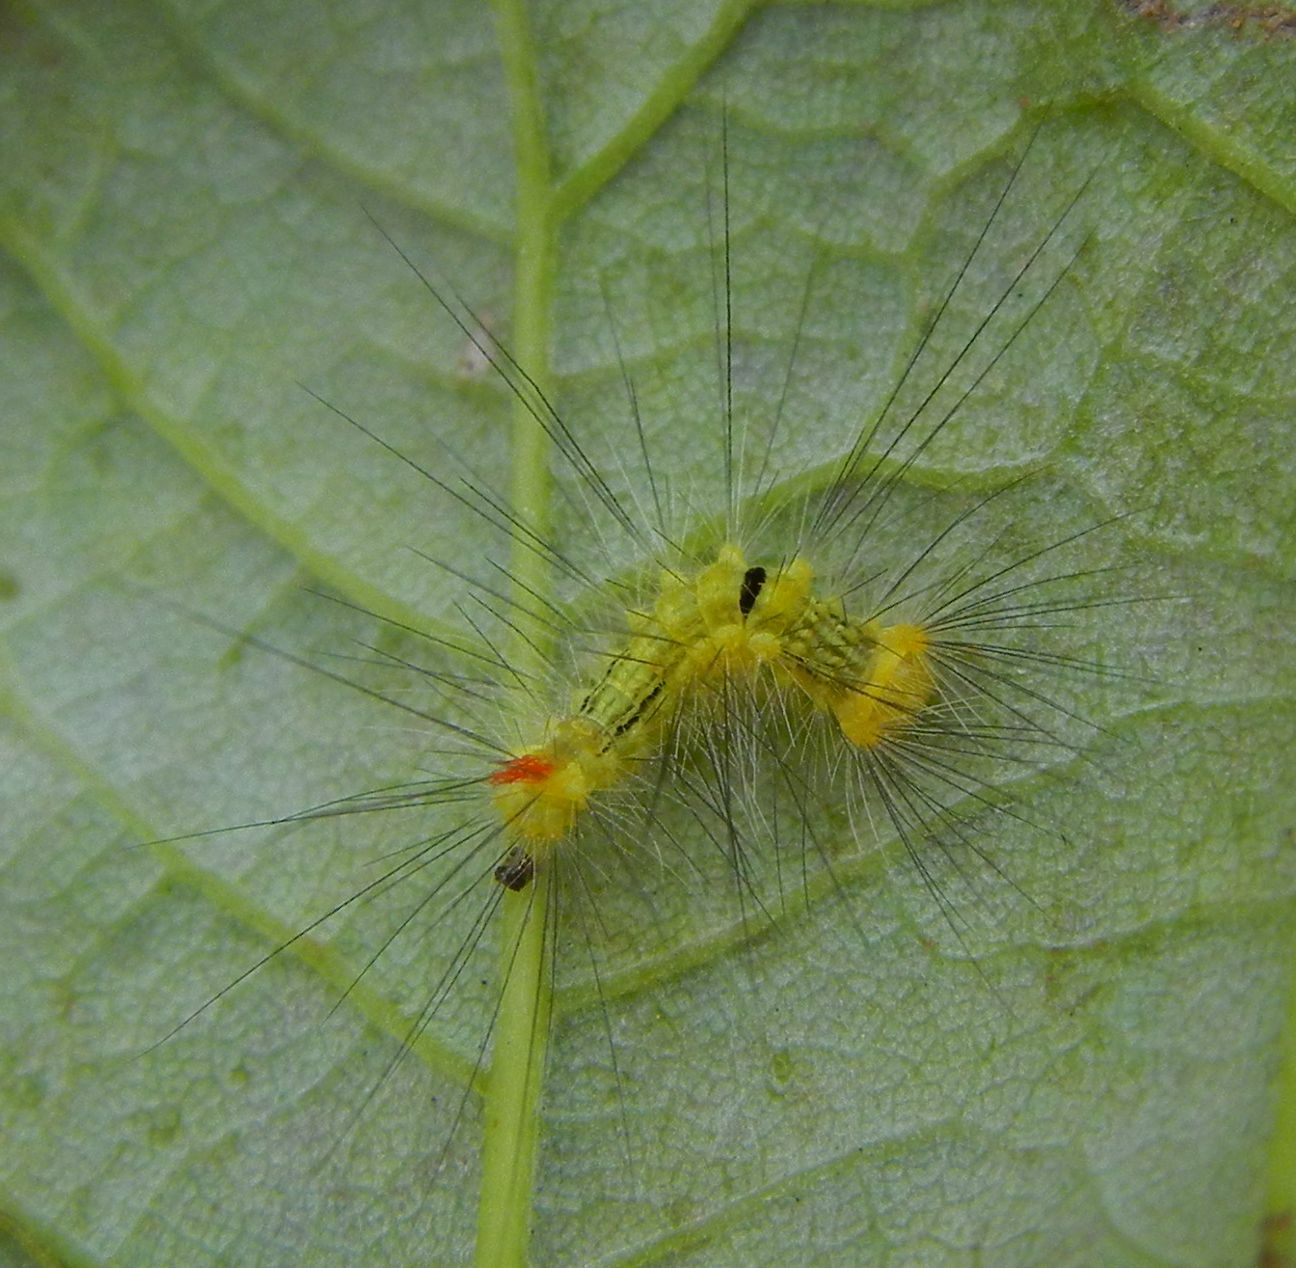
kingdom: Animalia
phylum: Arthropoda
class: Insecta
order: Lepidoptera
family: Erebidae
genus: Calliteara
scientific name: Calliteara pudibunda
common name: Pale tussock
